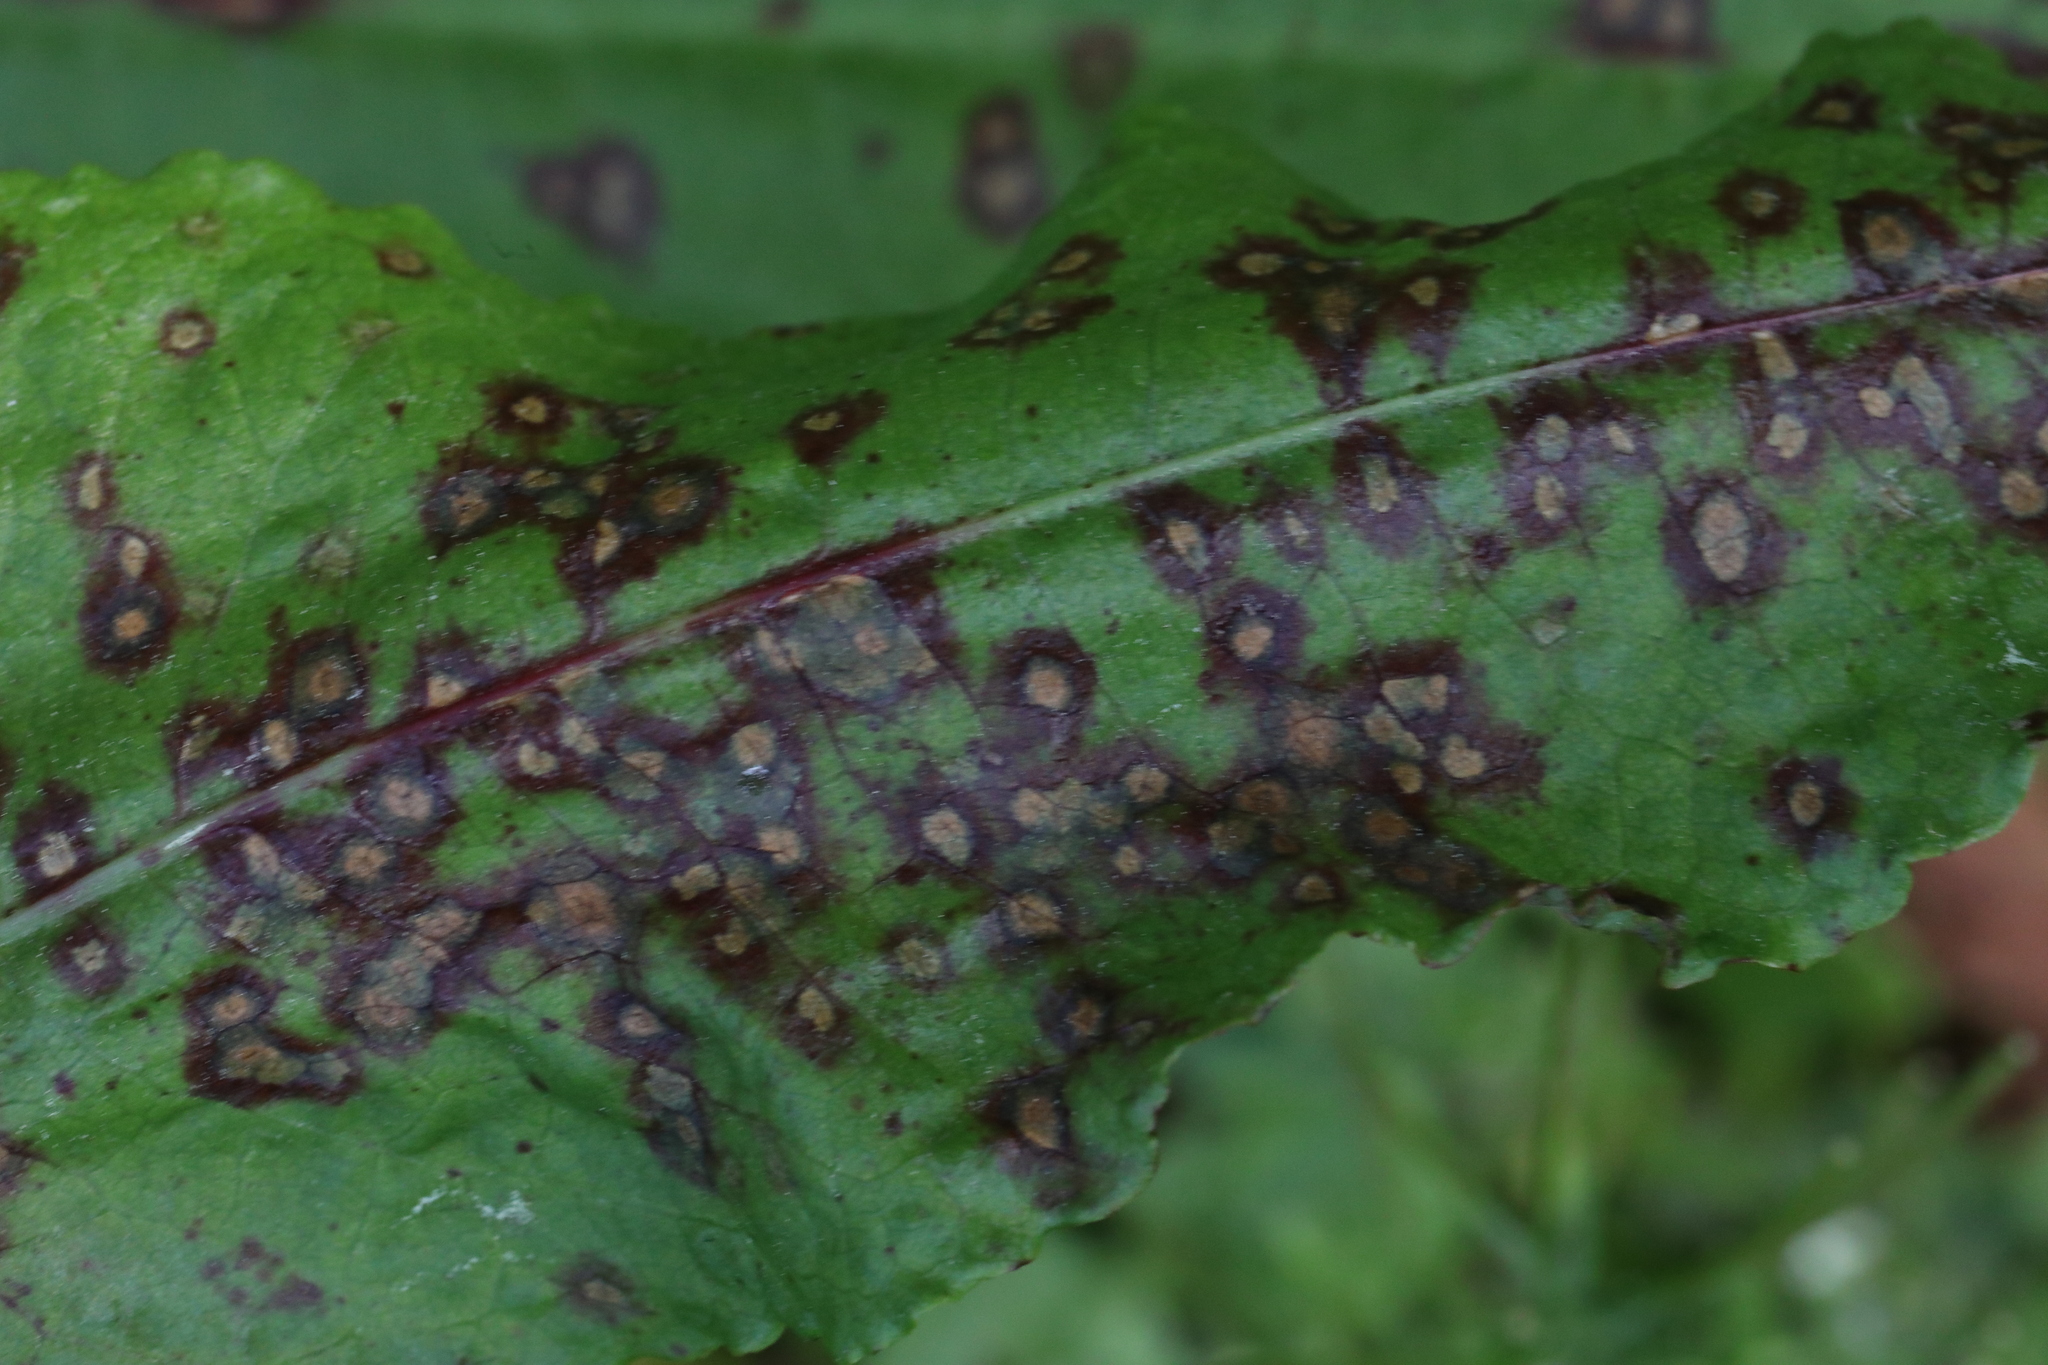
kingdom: Fungi
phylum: Ascomycota
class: Dothideomycetes
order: Mycosphaerellales
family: Mycosphaerellaceae
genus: Ramularia
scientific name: Ramularia rubella
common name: Red dock spot
